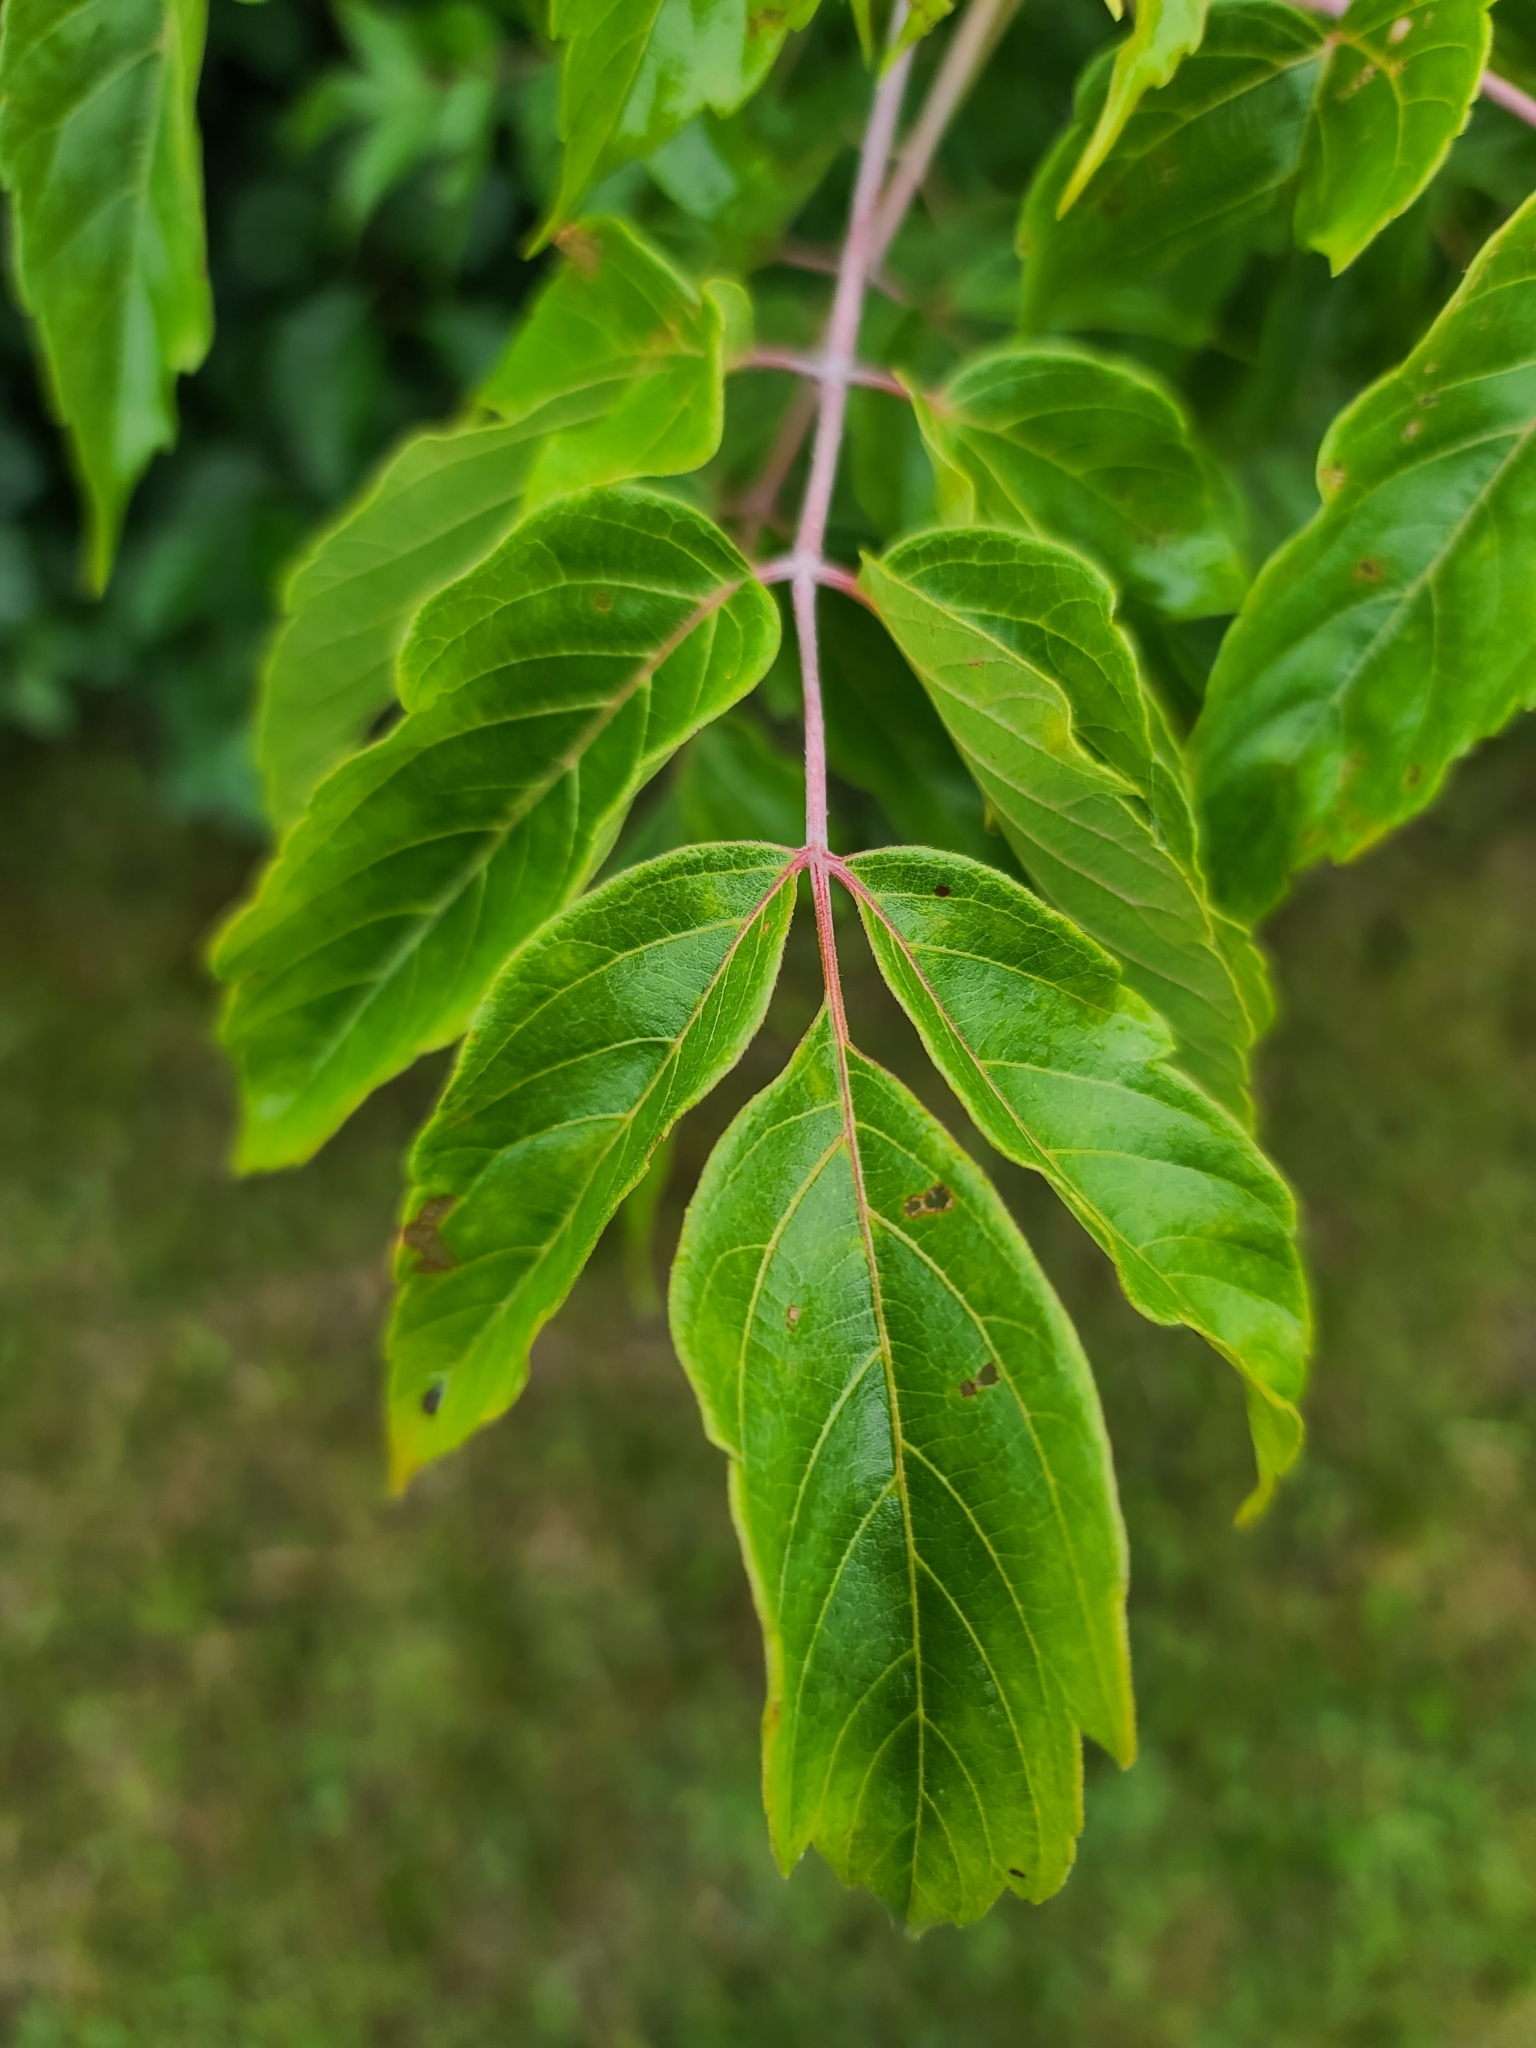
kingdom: Plantae
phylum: Tracheophyta
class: Magnoliopsida
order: Sapindales
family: Sapindaceae
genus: Acer
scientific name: Acer negundo
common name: Ashleaf maple
